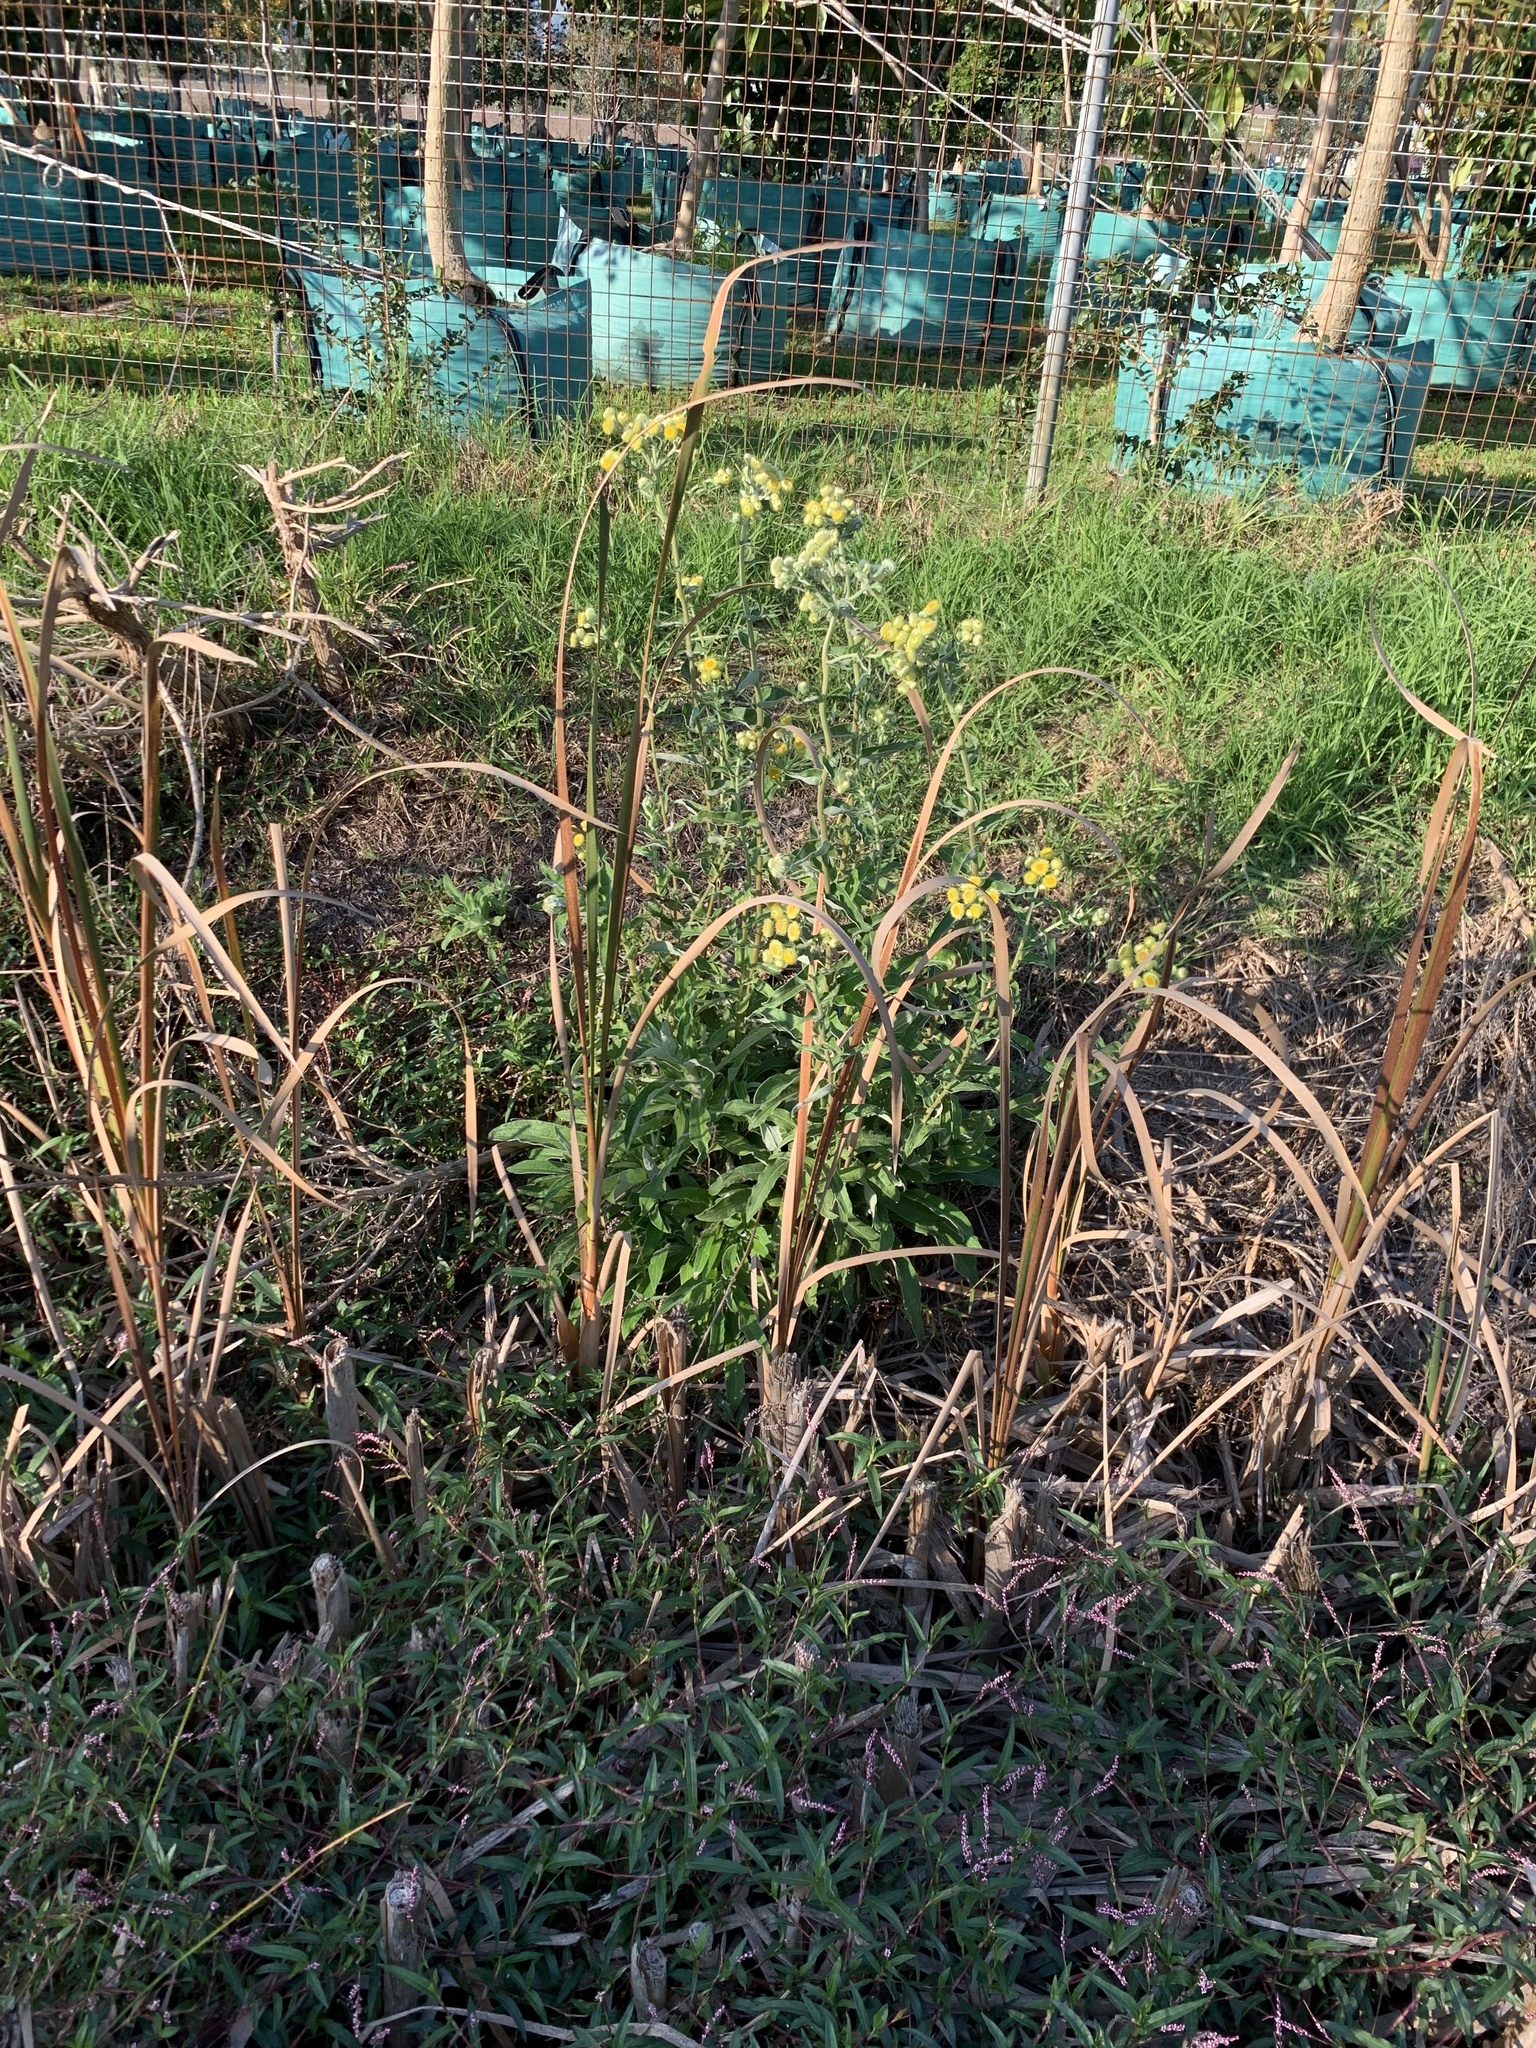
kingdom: Plantae
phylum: Tracheophyta
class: Magnoliopsida
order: Asterales
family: Asteraceae
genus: Helichrysum
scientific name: Helichrysum foetidum
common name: Stinking everlasting
